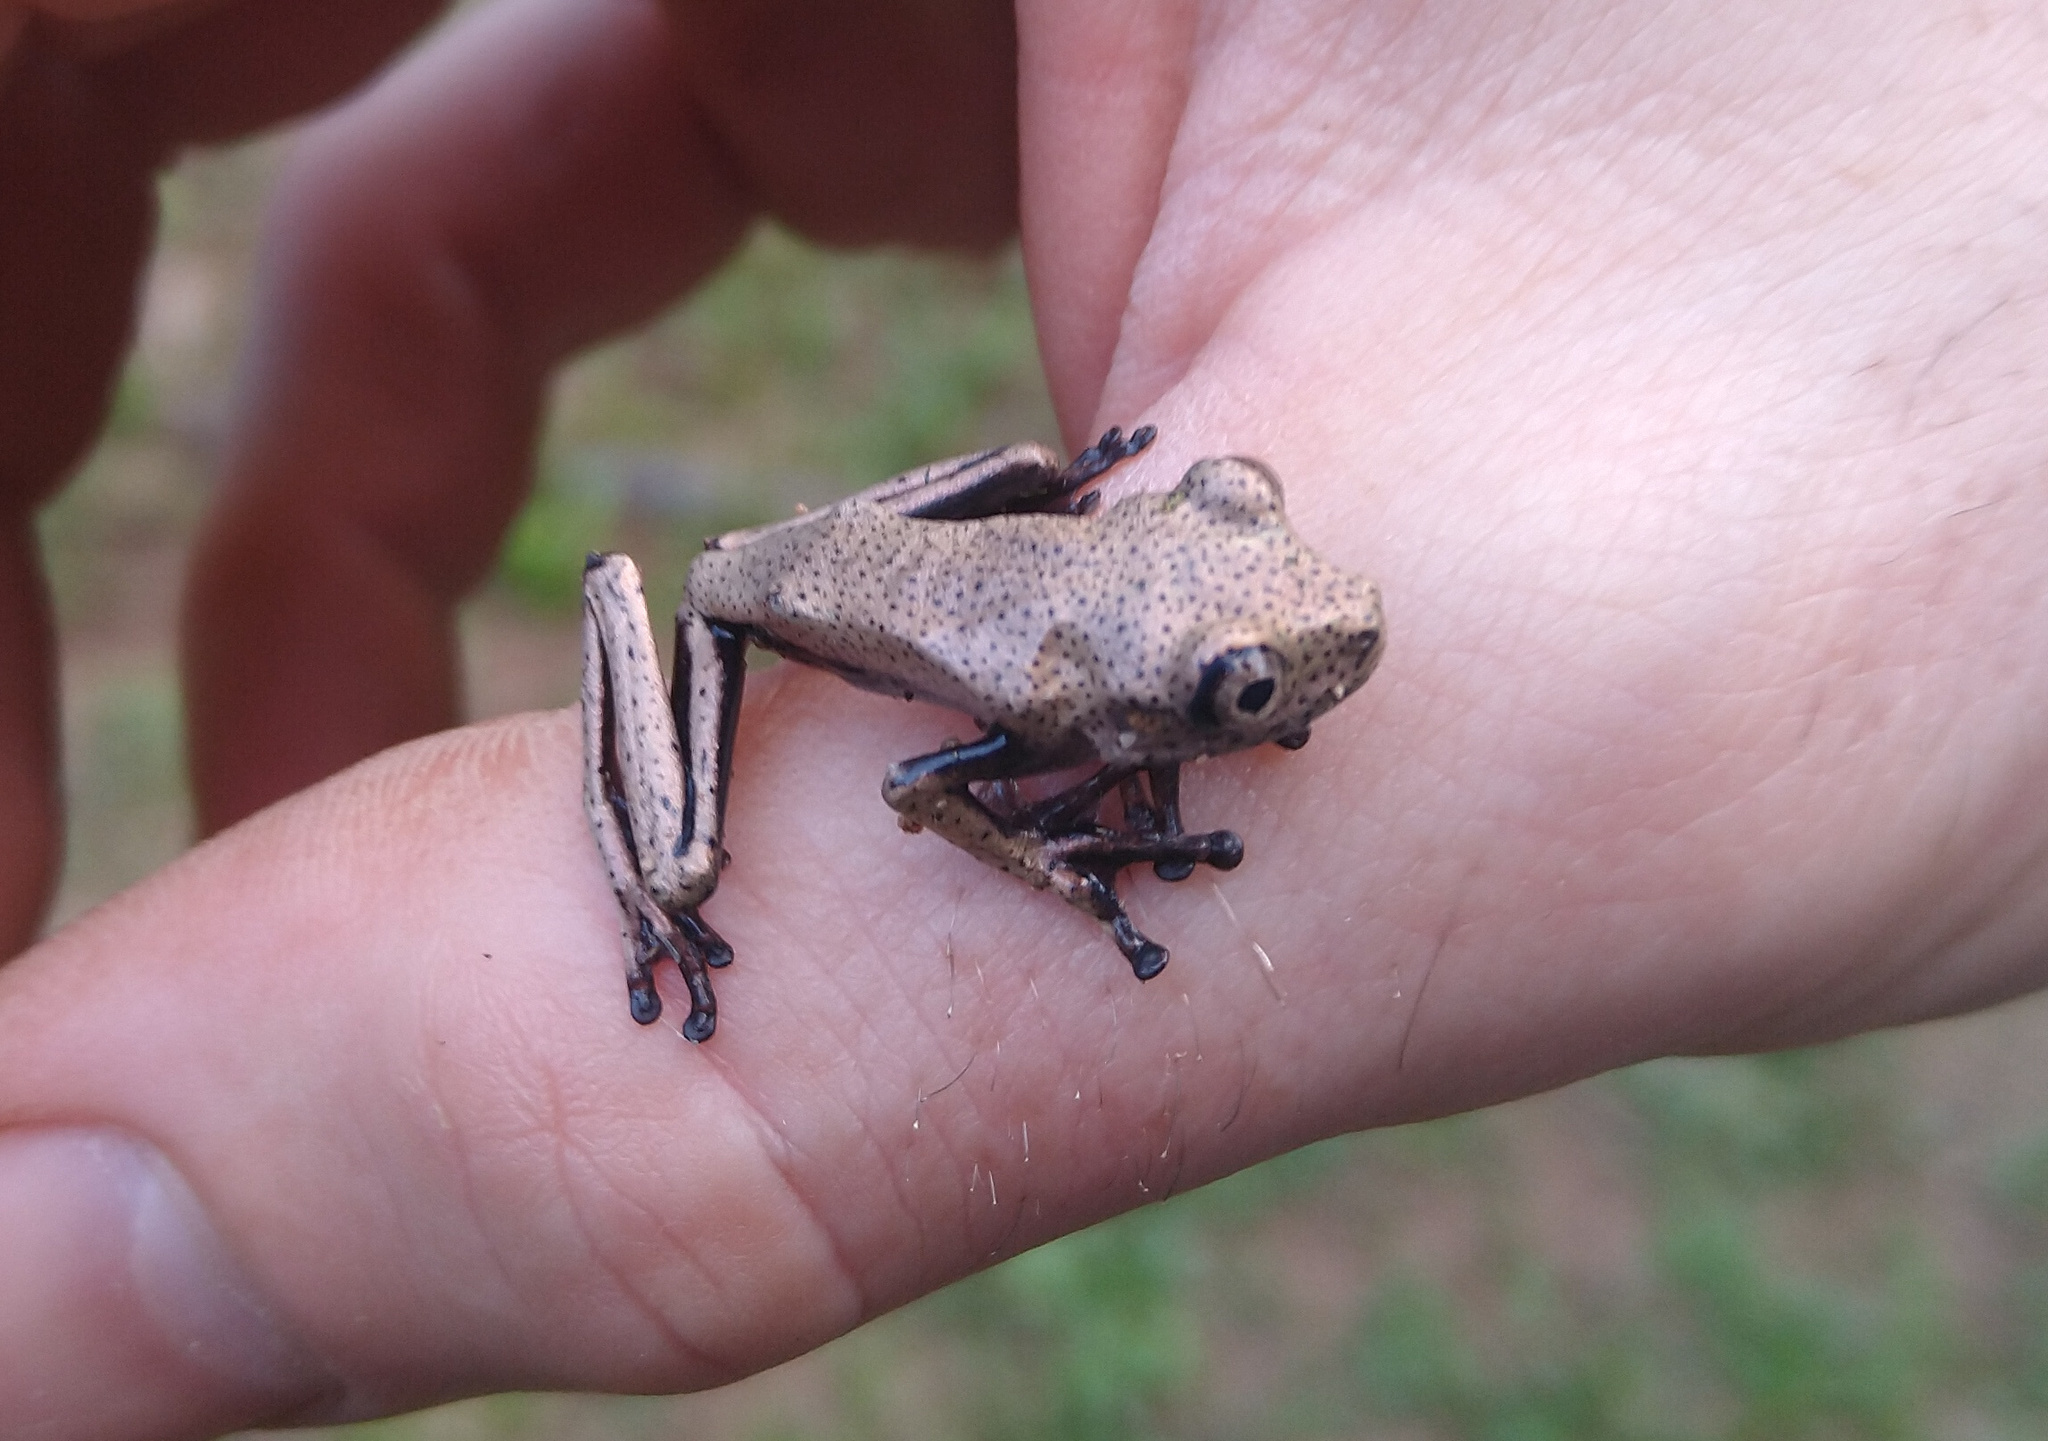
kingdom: Animalia
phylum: Chordata
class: Amphibia
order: Anura
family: Hylidae
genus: Boana
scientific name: Boana semilineata
